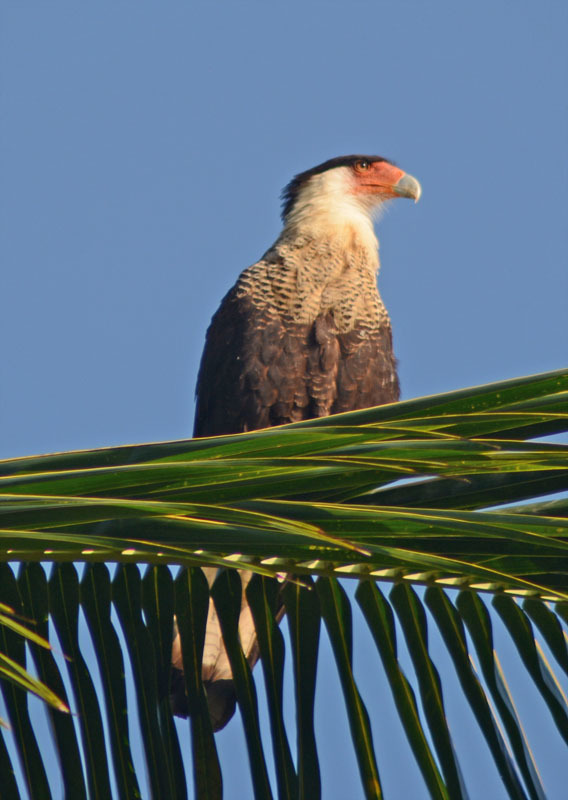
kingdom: Animalia
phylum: Chordata
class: Aves
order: Falconiformes
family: Falconidae
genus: Caracara
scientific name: Caracara plancus
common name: Southern caracara
